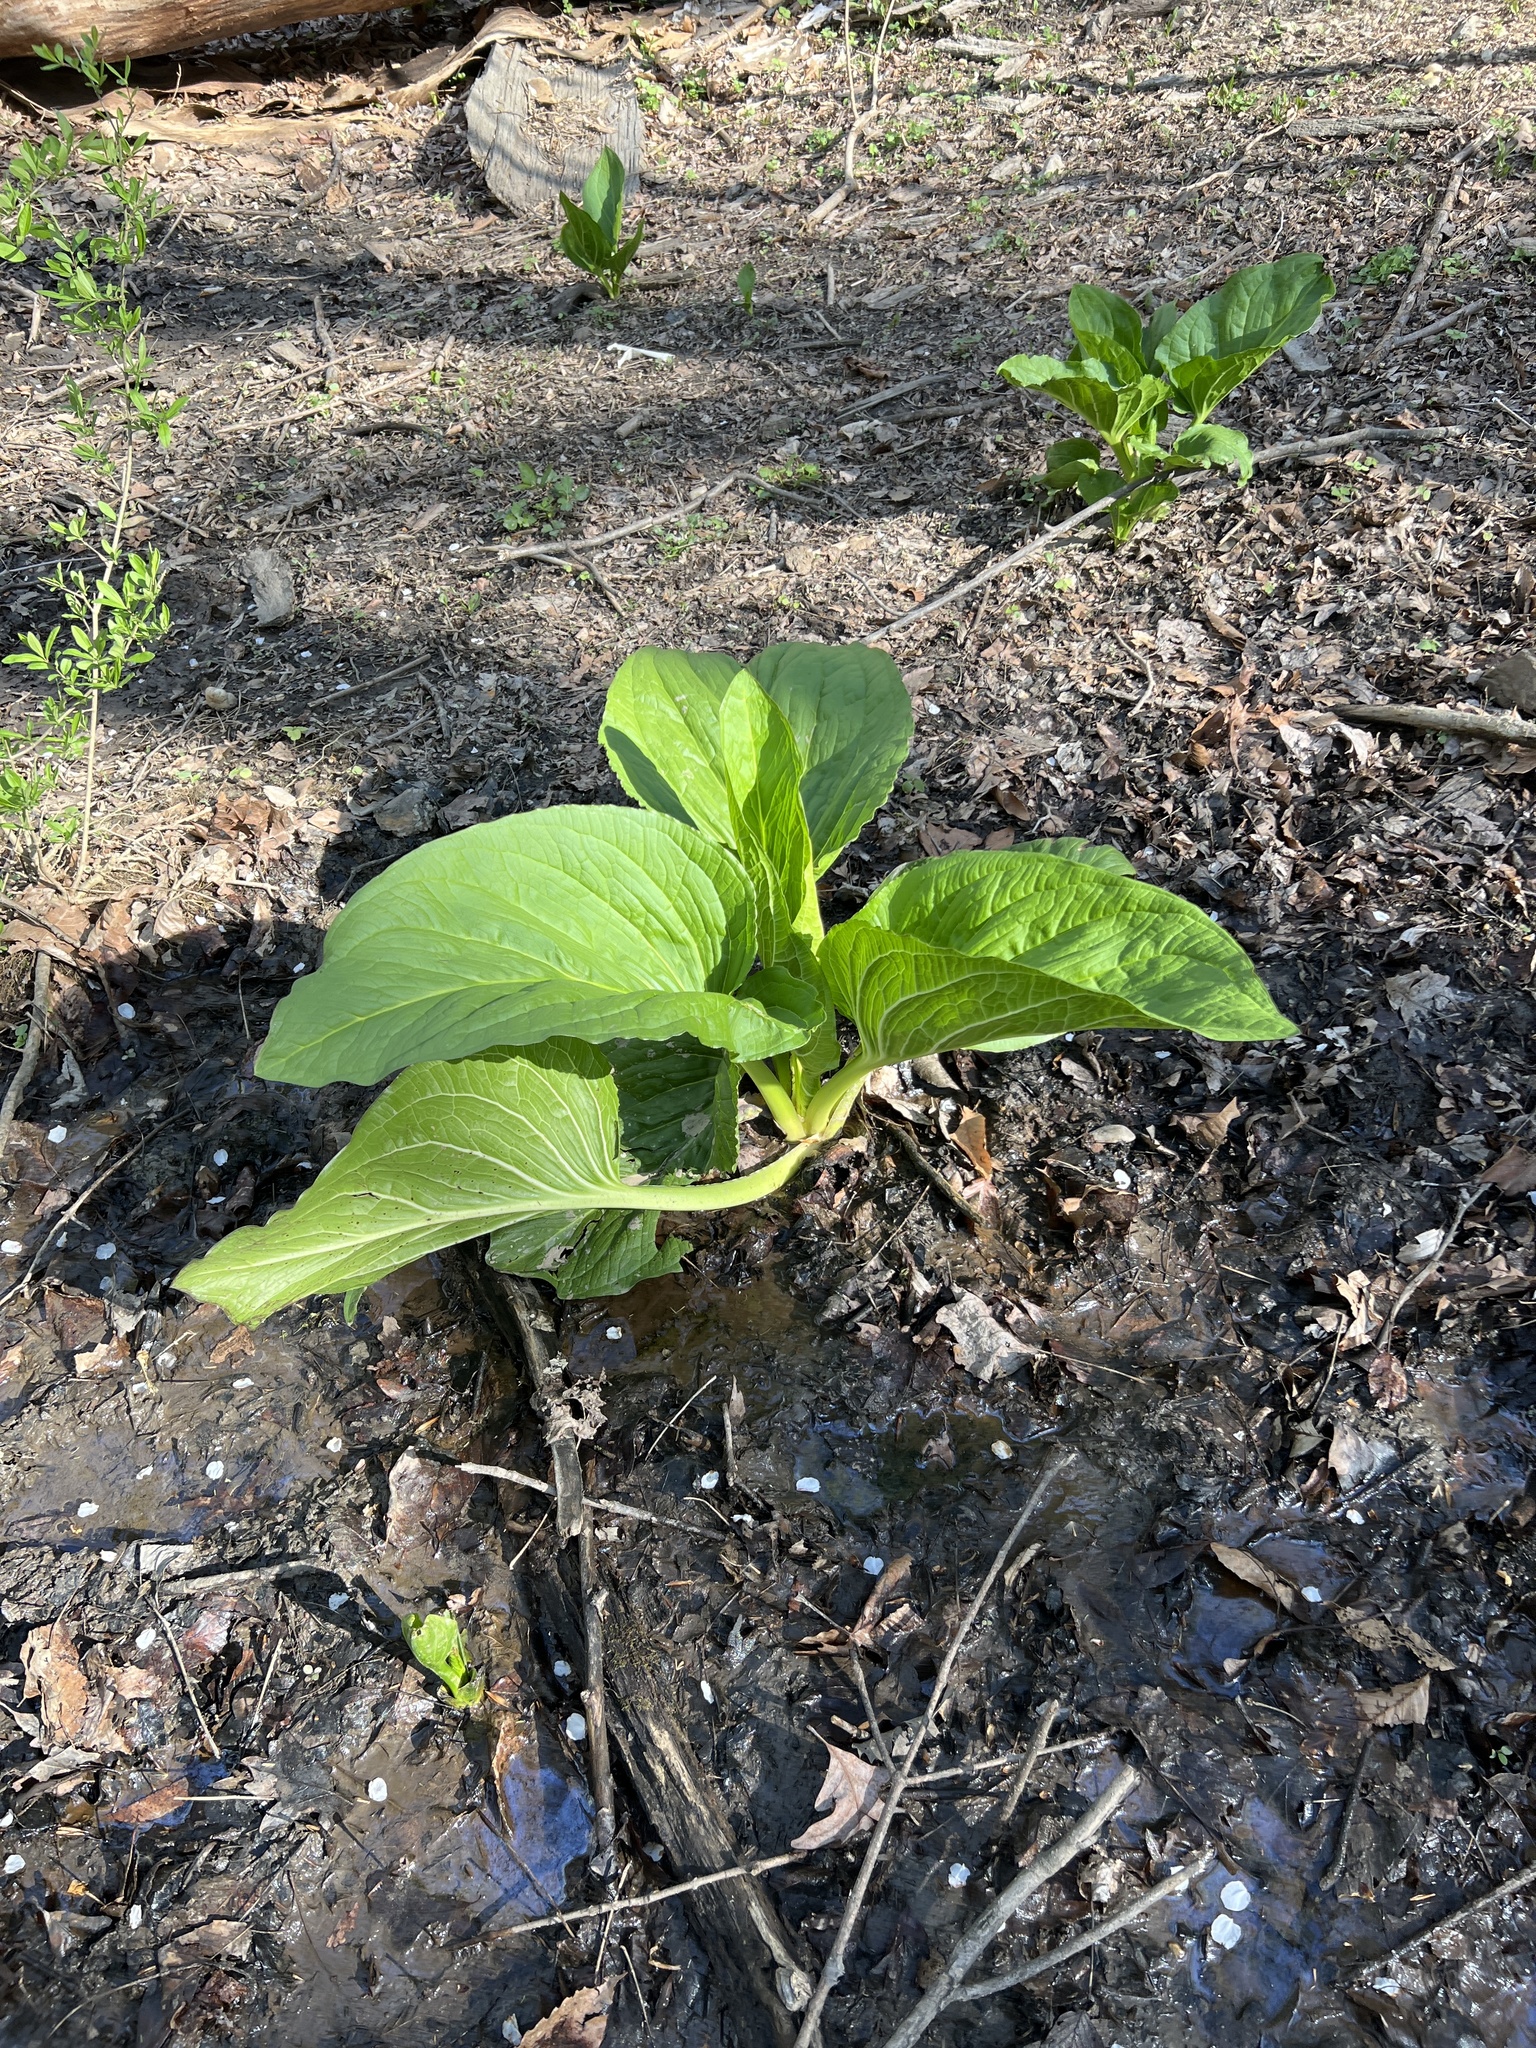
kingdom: Plantae
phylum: Tracheophyta
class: Liliopsida
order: Alismatales
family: Araceae
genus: Symplocarpus
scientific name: Symplocarpus foetidus
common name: Eastern skunk cabbage
